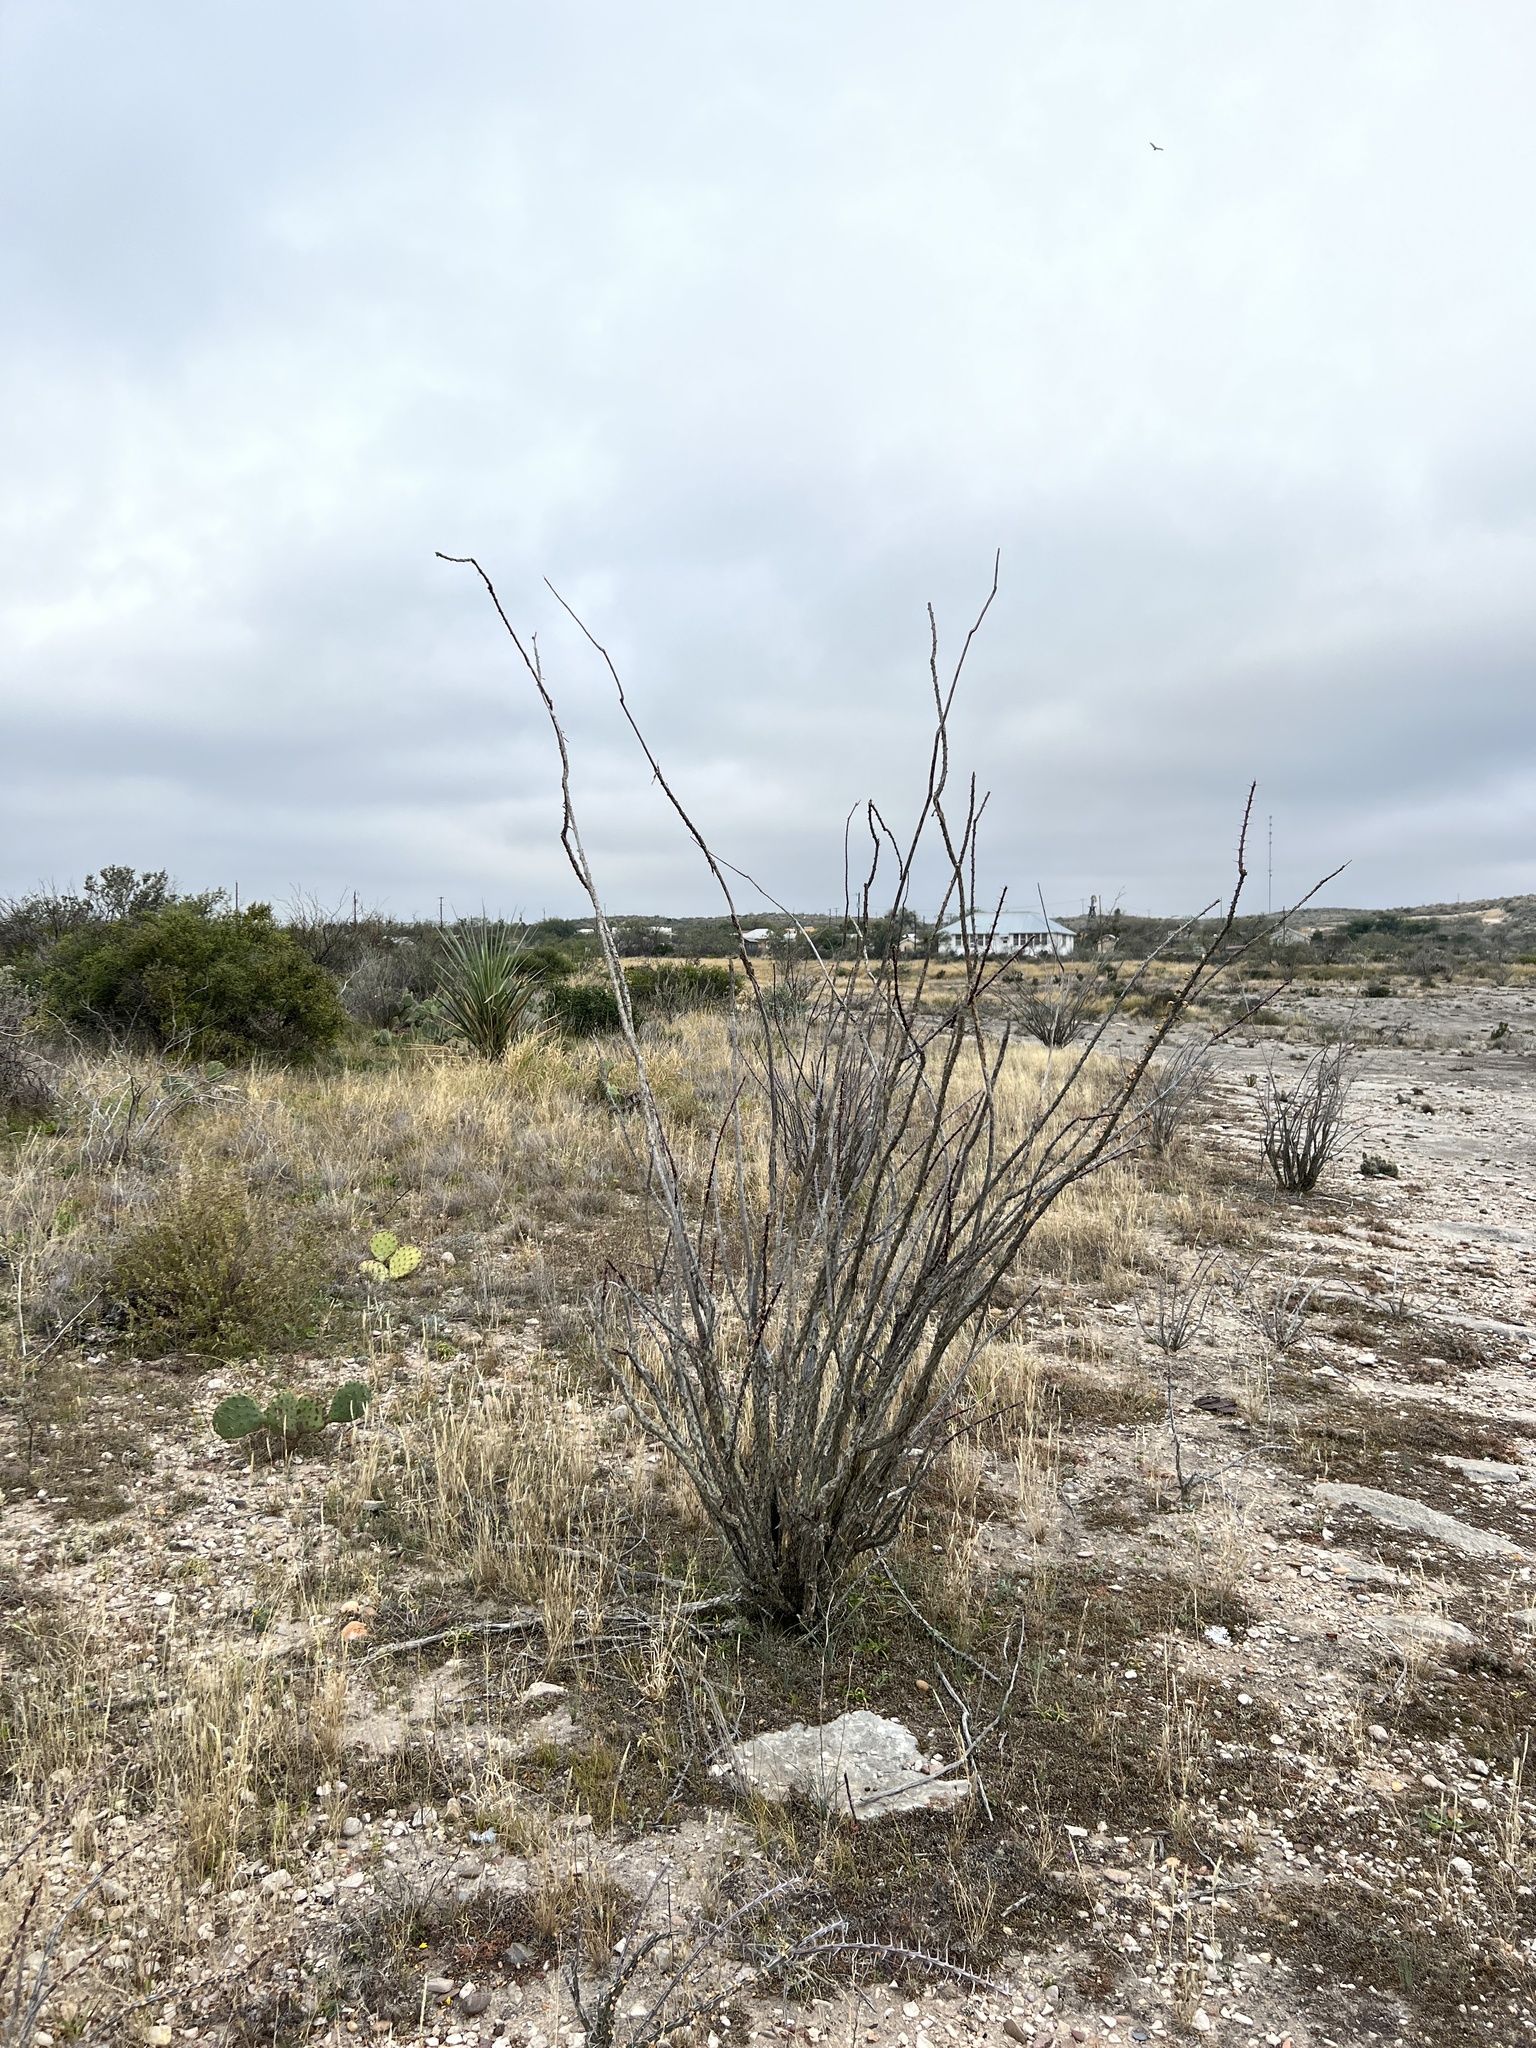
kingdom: Plantae
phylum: Tracheophyta
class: Magnoliopsida
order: Ericales
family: Fouquieriaceae
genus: Fouquieria
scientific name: Fouquieria splendens
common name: Vine-cactus
